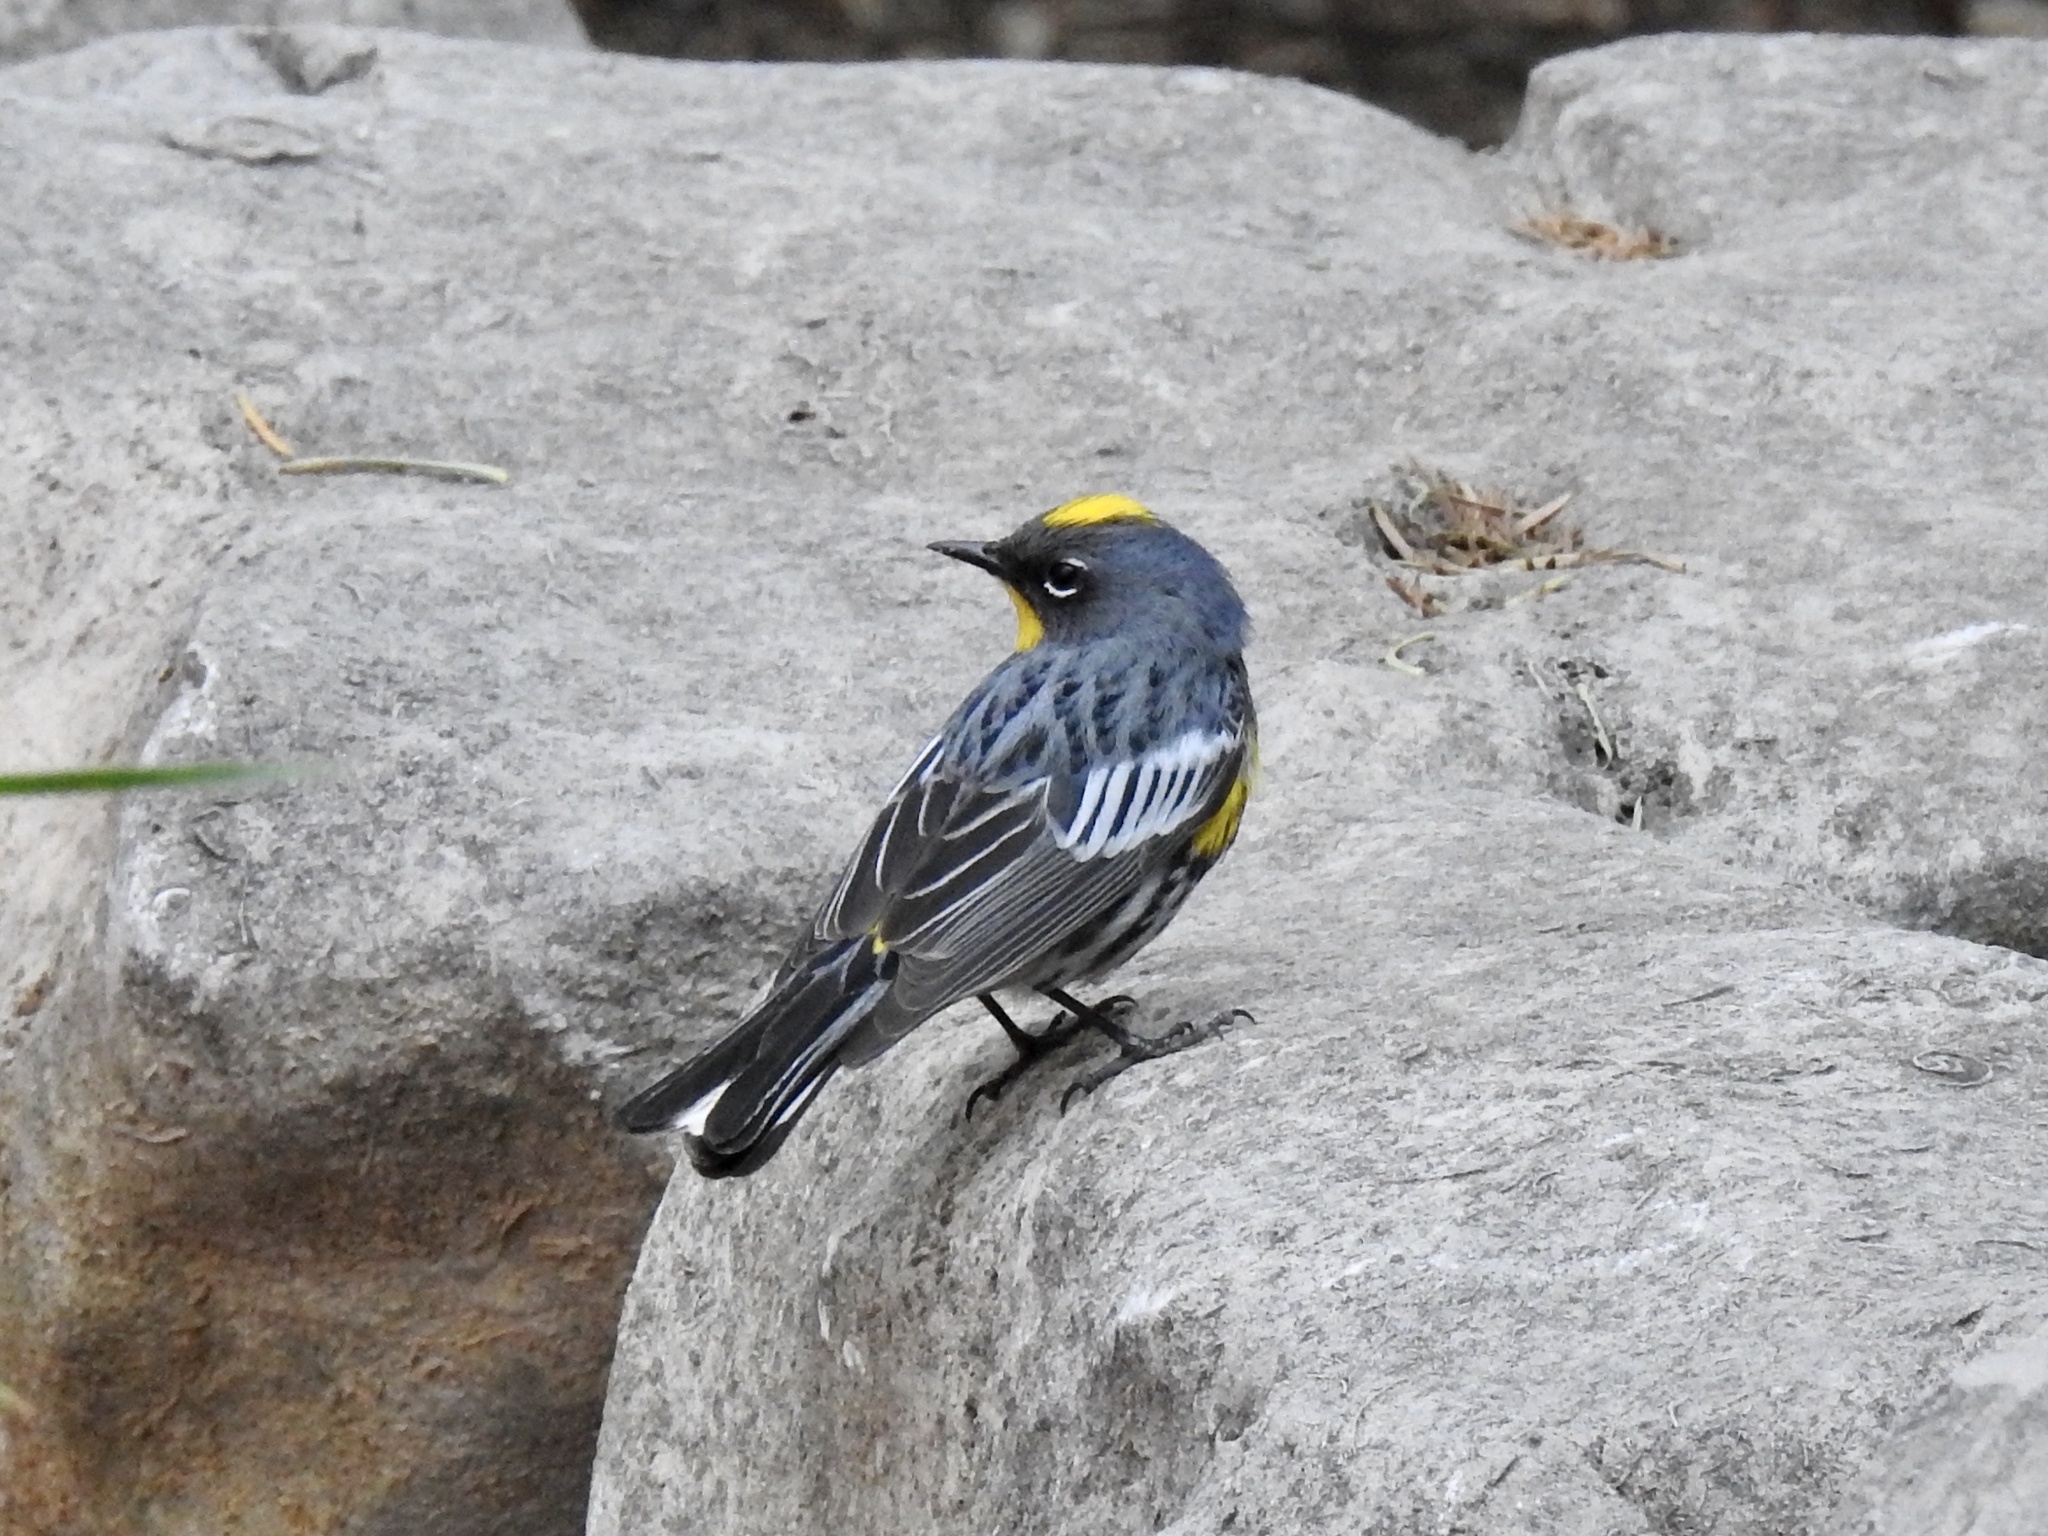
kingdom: Animalia
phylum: Chordata
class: Aves
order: Passeriformes
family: Parulidae
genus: Setophaga
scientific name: Setophaga coronata
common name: Myrtle warbler
